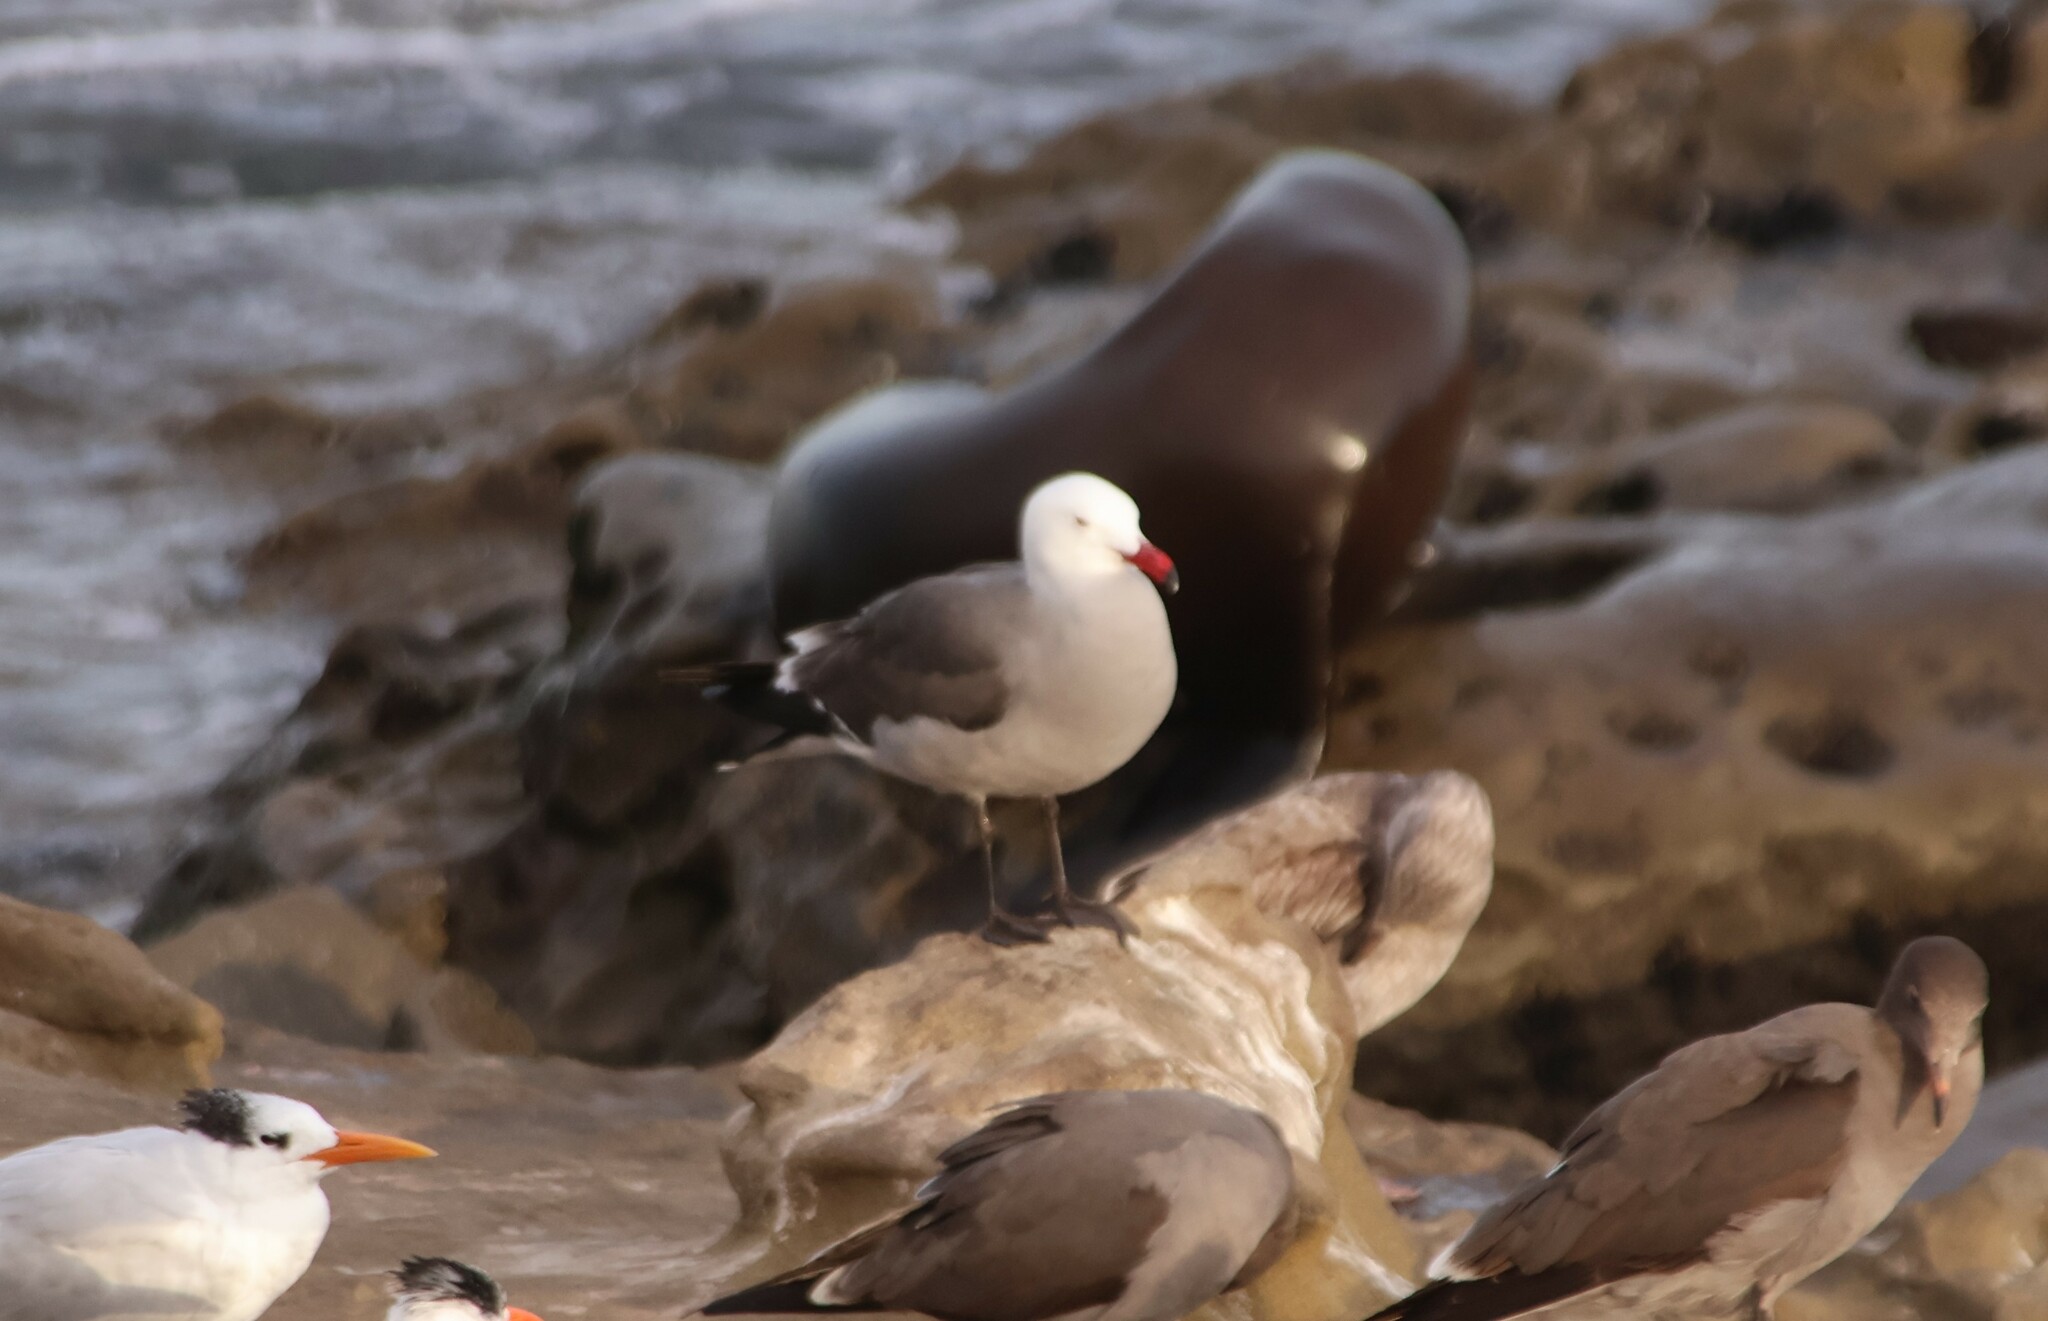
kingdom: Animalia
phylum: Chordata
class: Aves
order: Charadriiformes
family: Laridae
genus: Larus
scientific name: Larus heermanni
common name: Heermann's gull
